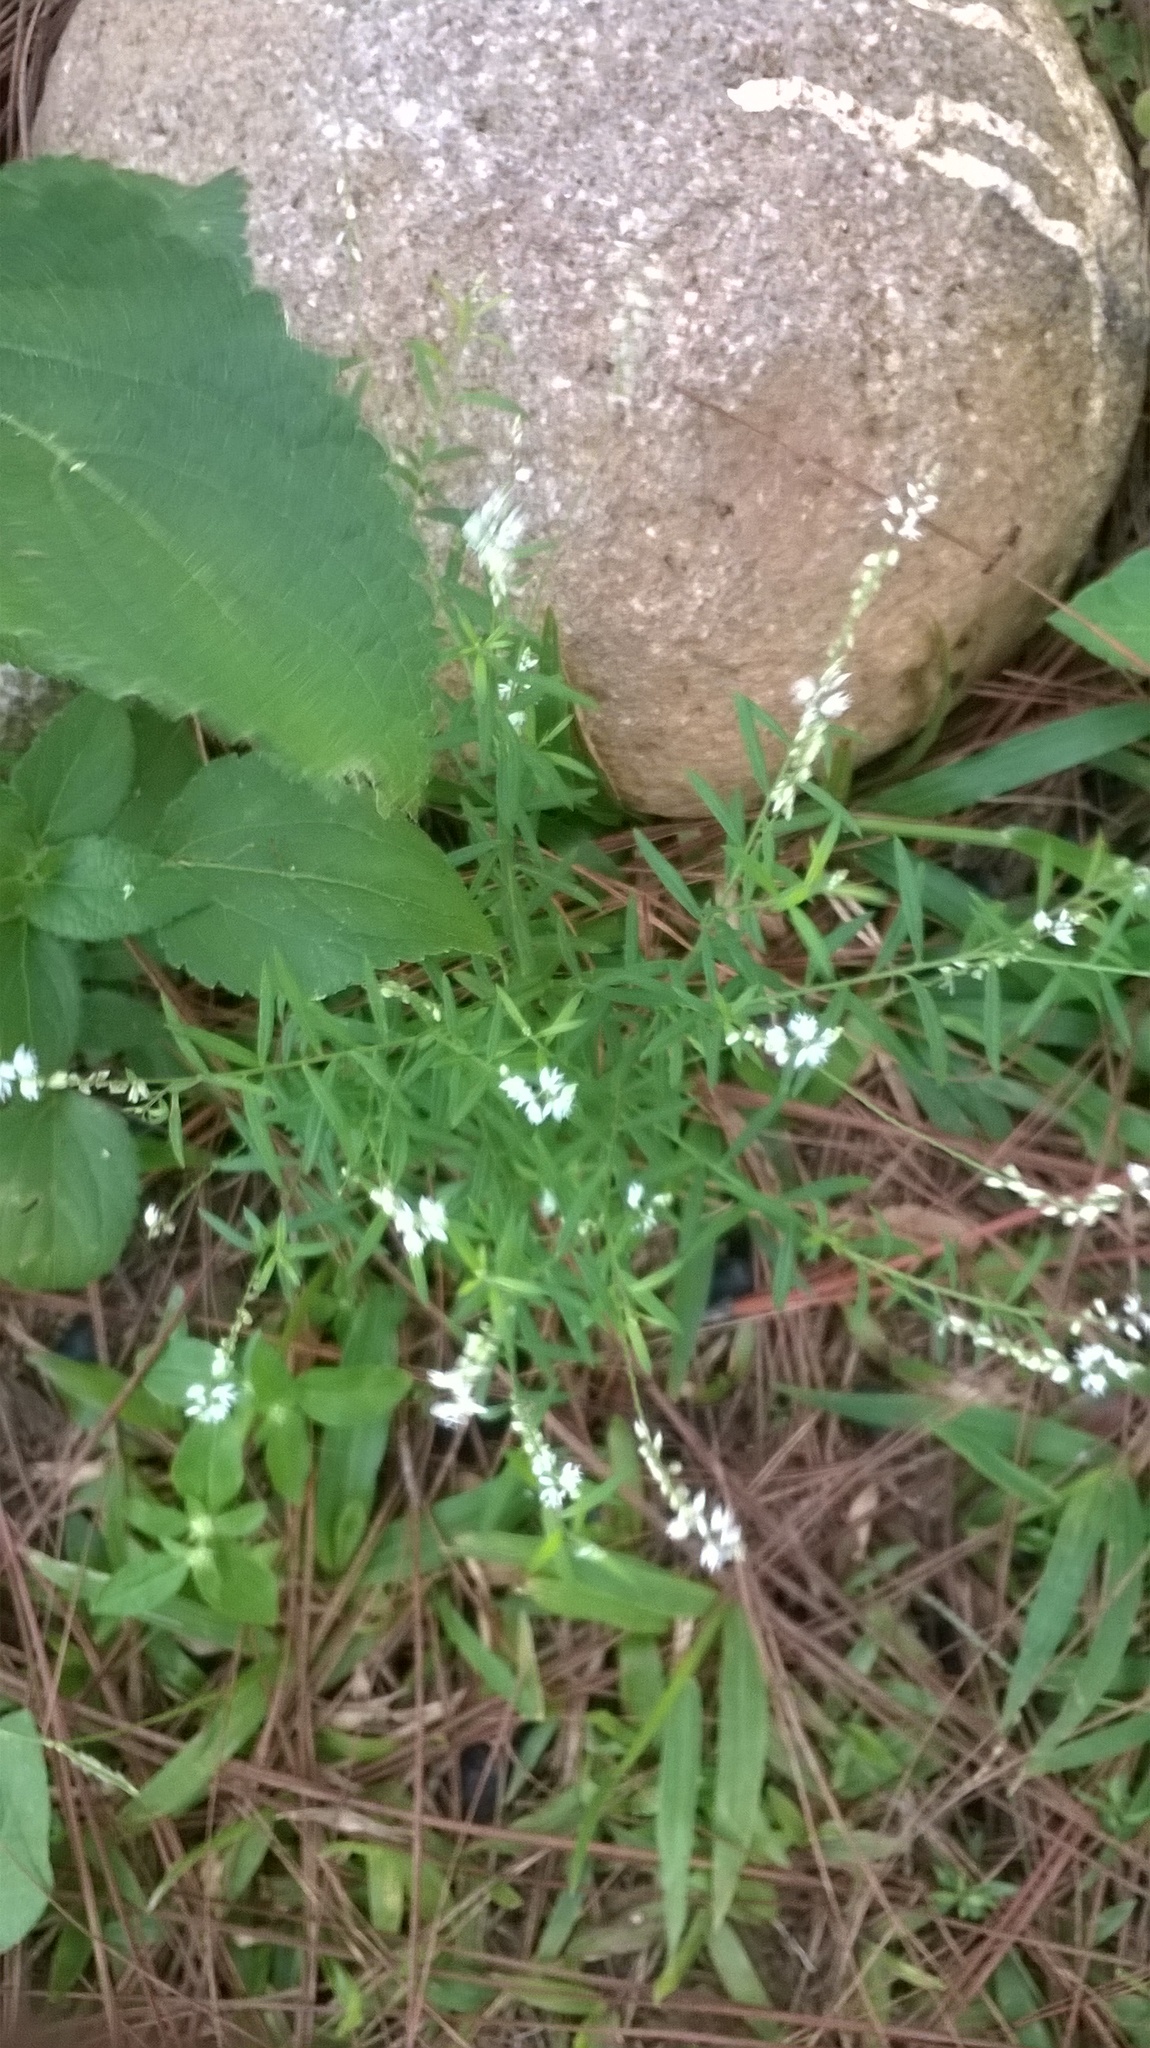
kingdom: Plantae
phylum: Tracheophyta
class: Magnoliopsida
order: Fabales
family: Polygalaceae
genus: Polygala
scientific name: Polygala paniculata
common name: Orosne
